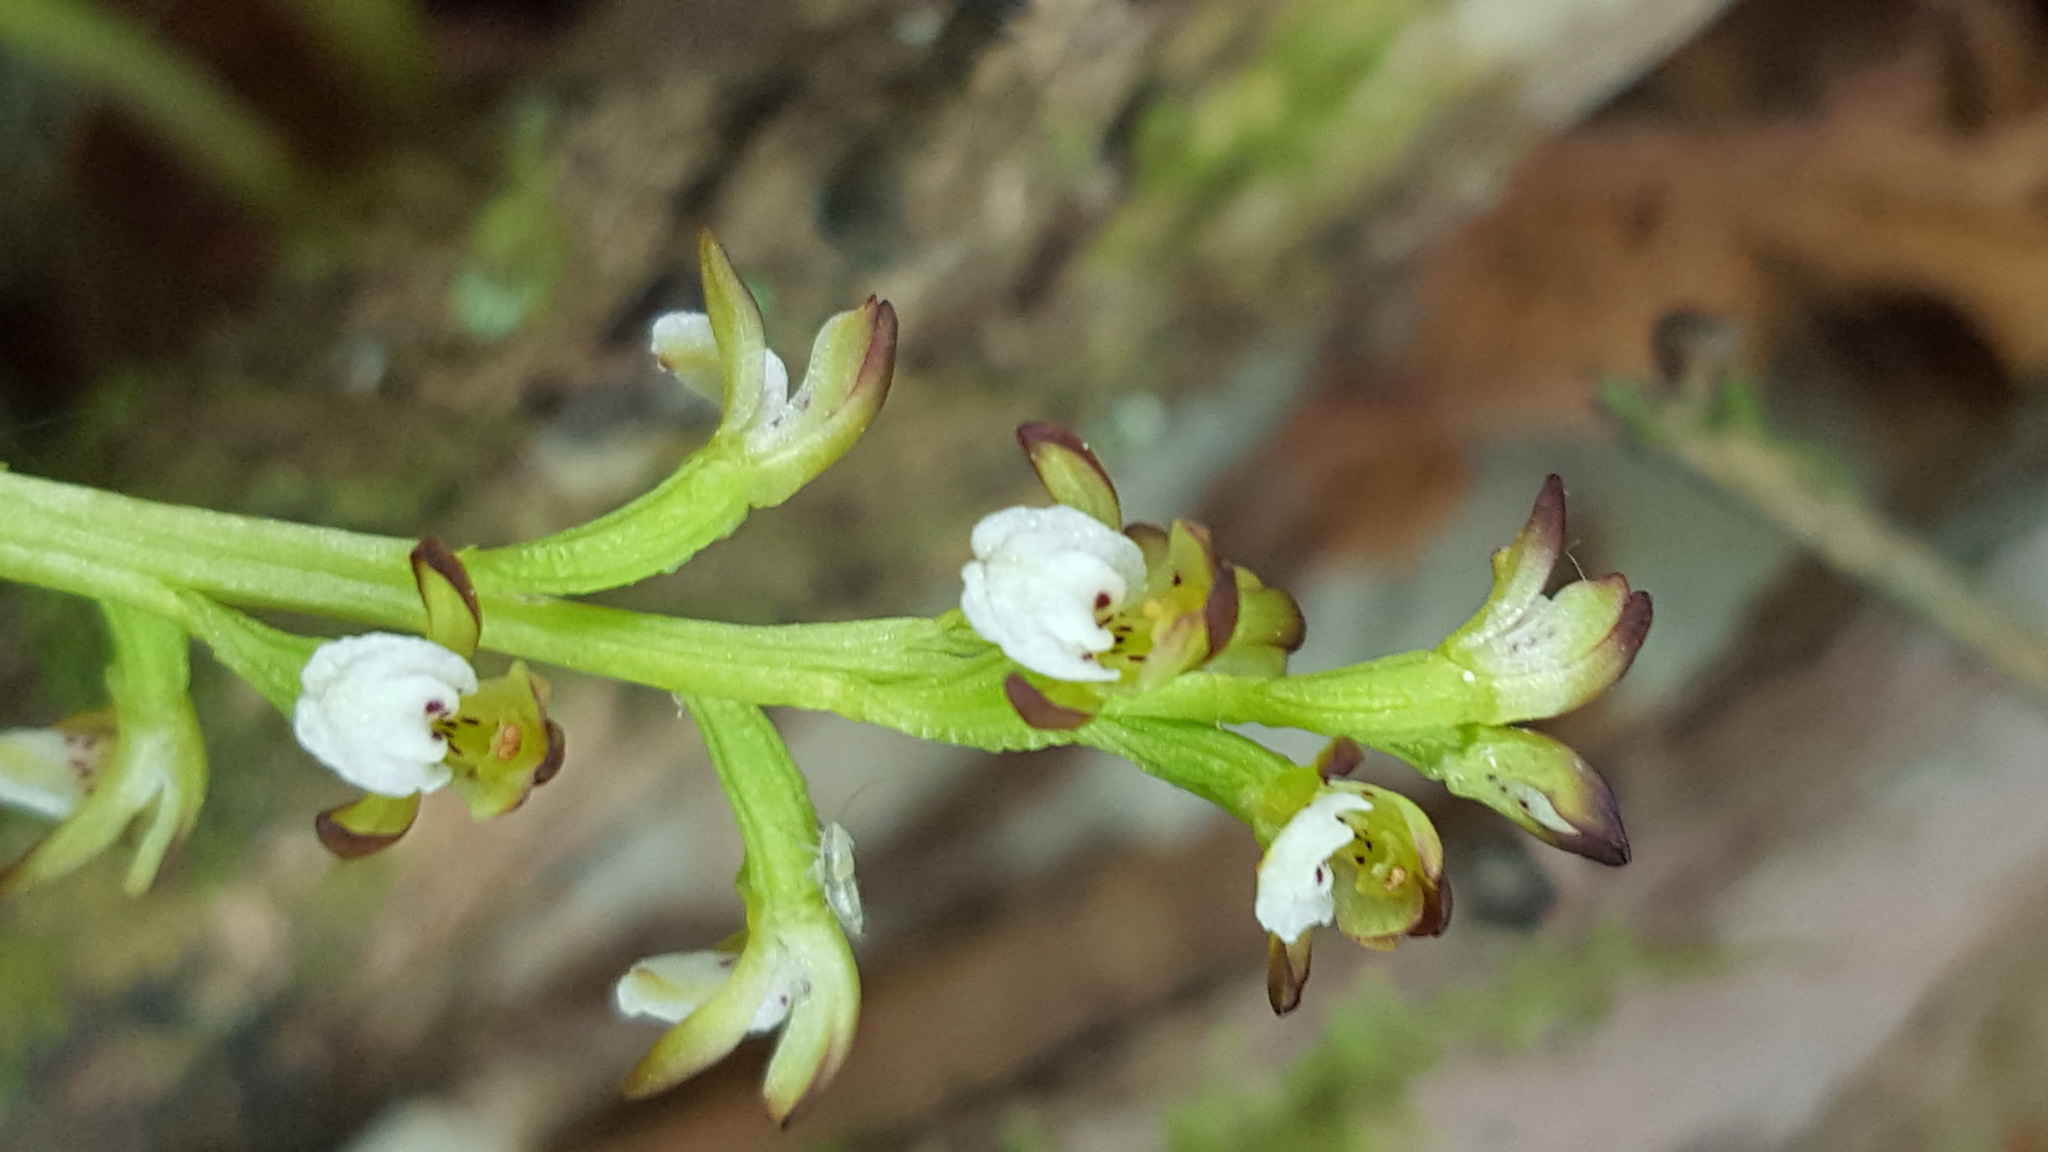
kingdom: Plantae
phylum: Tracheophyta
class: Liliopsida
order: Asparagales
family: Orchidaceae
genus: Corallorhiza
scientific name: Corallorhiza trifida
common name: Yellow coralroot
